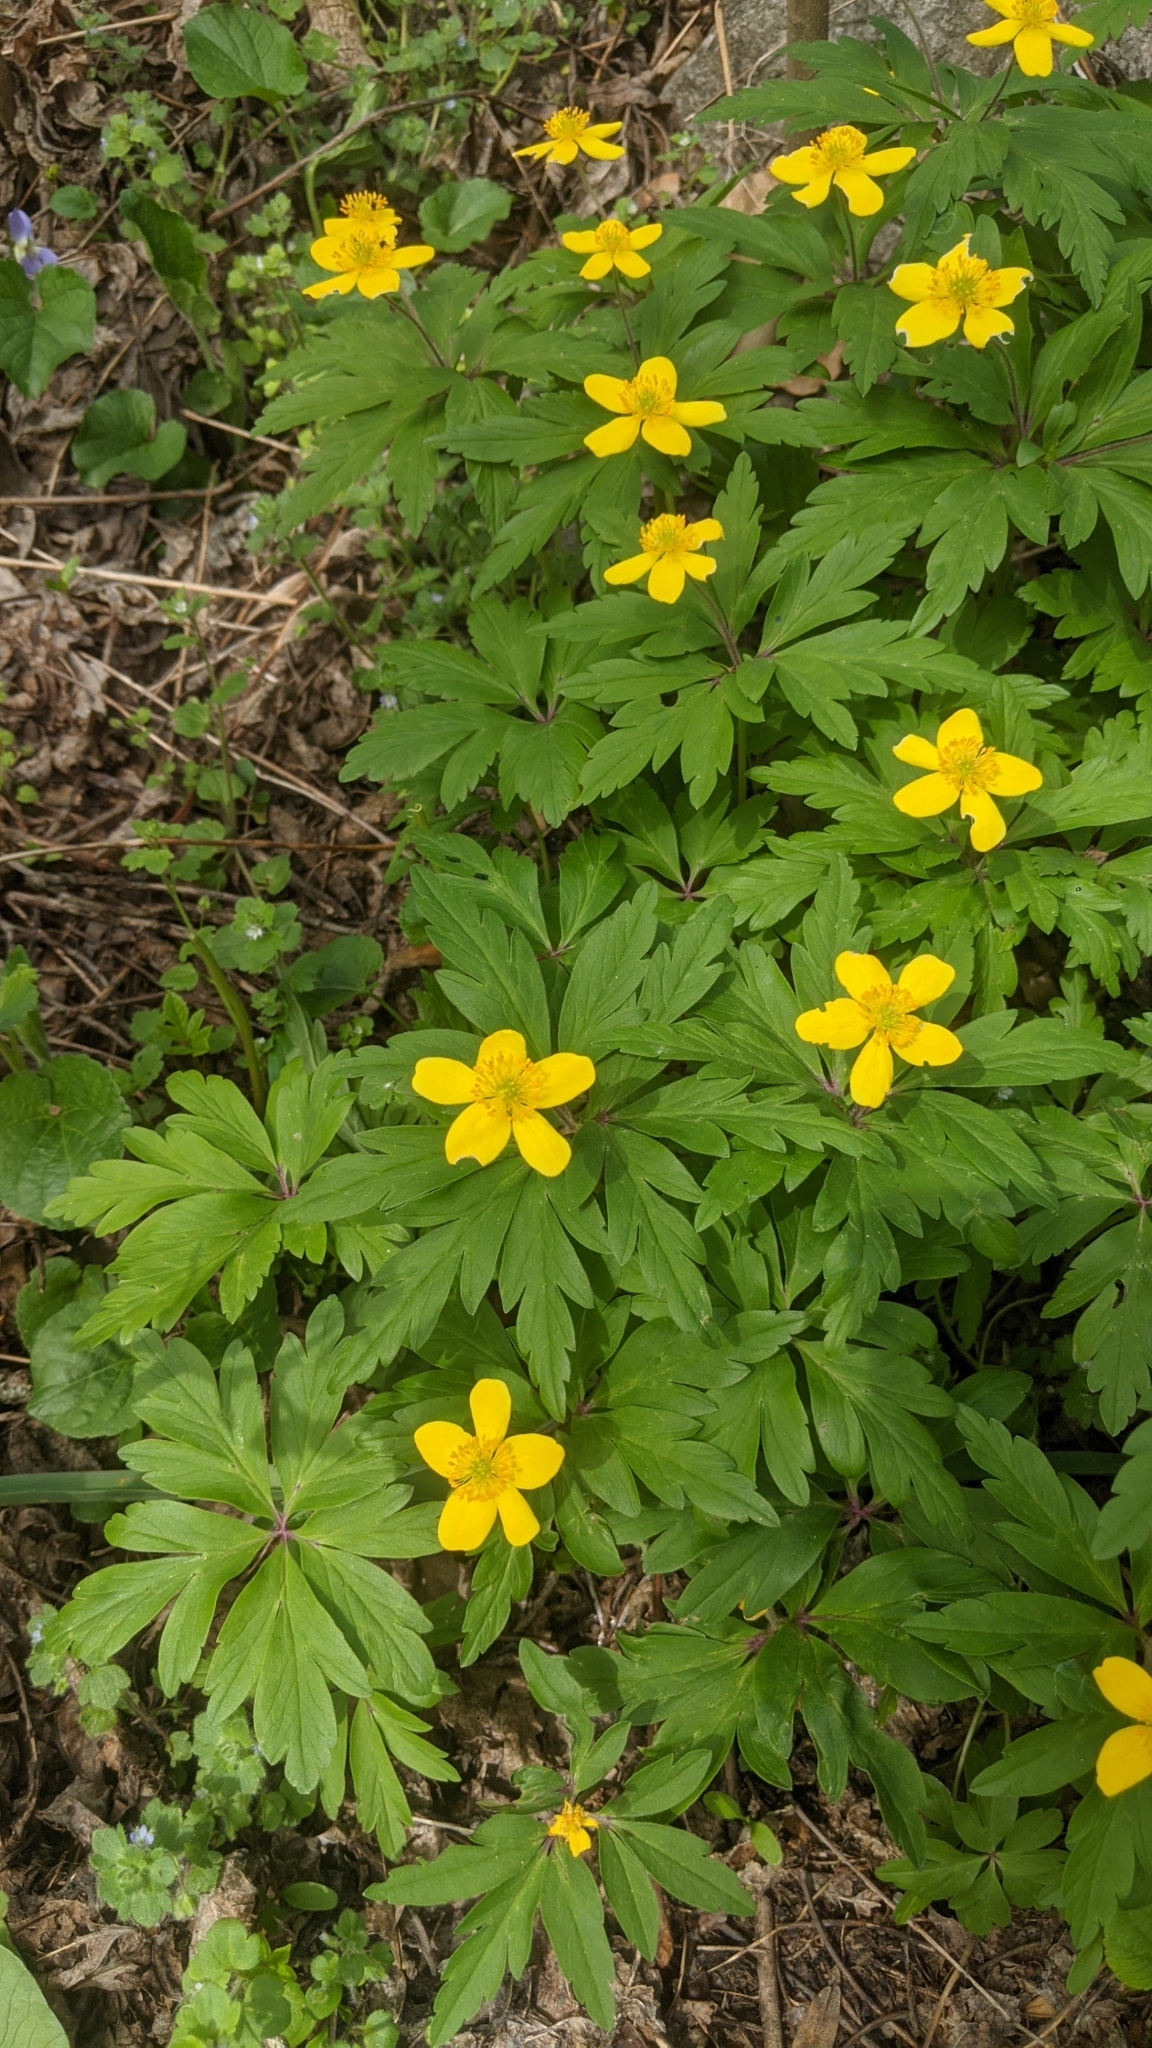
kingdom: Plantae
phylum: Tracheophyta
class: Magnoliopsida
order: Ranunculales
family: Ranunculaceae
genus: Anemone
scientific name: Anemone ranunculoides
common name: Yellow anemone
